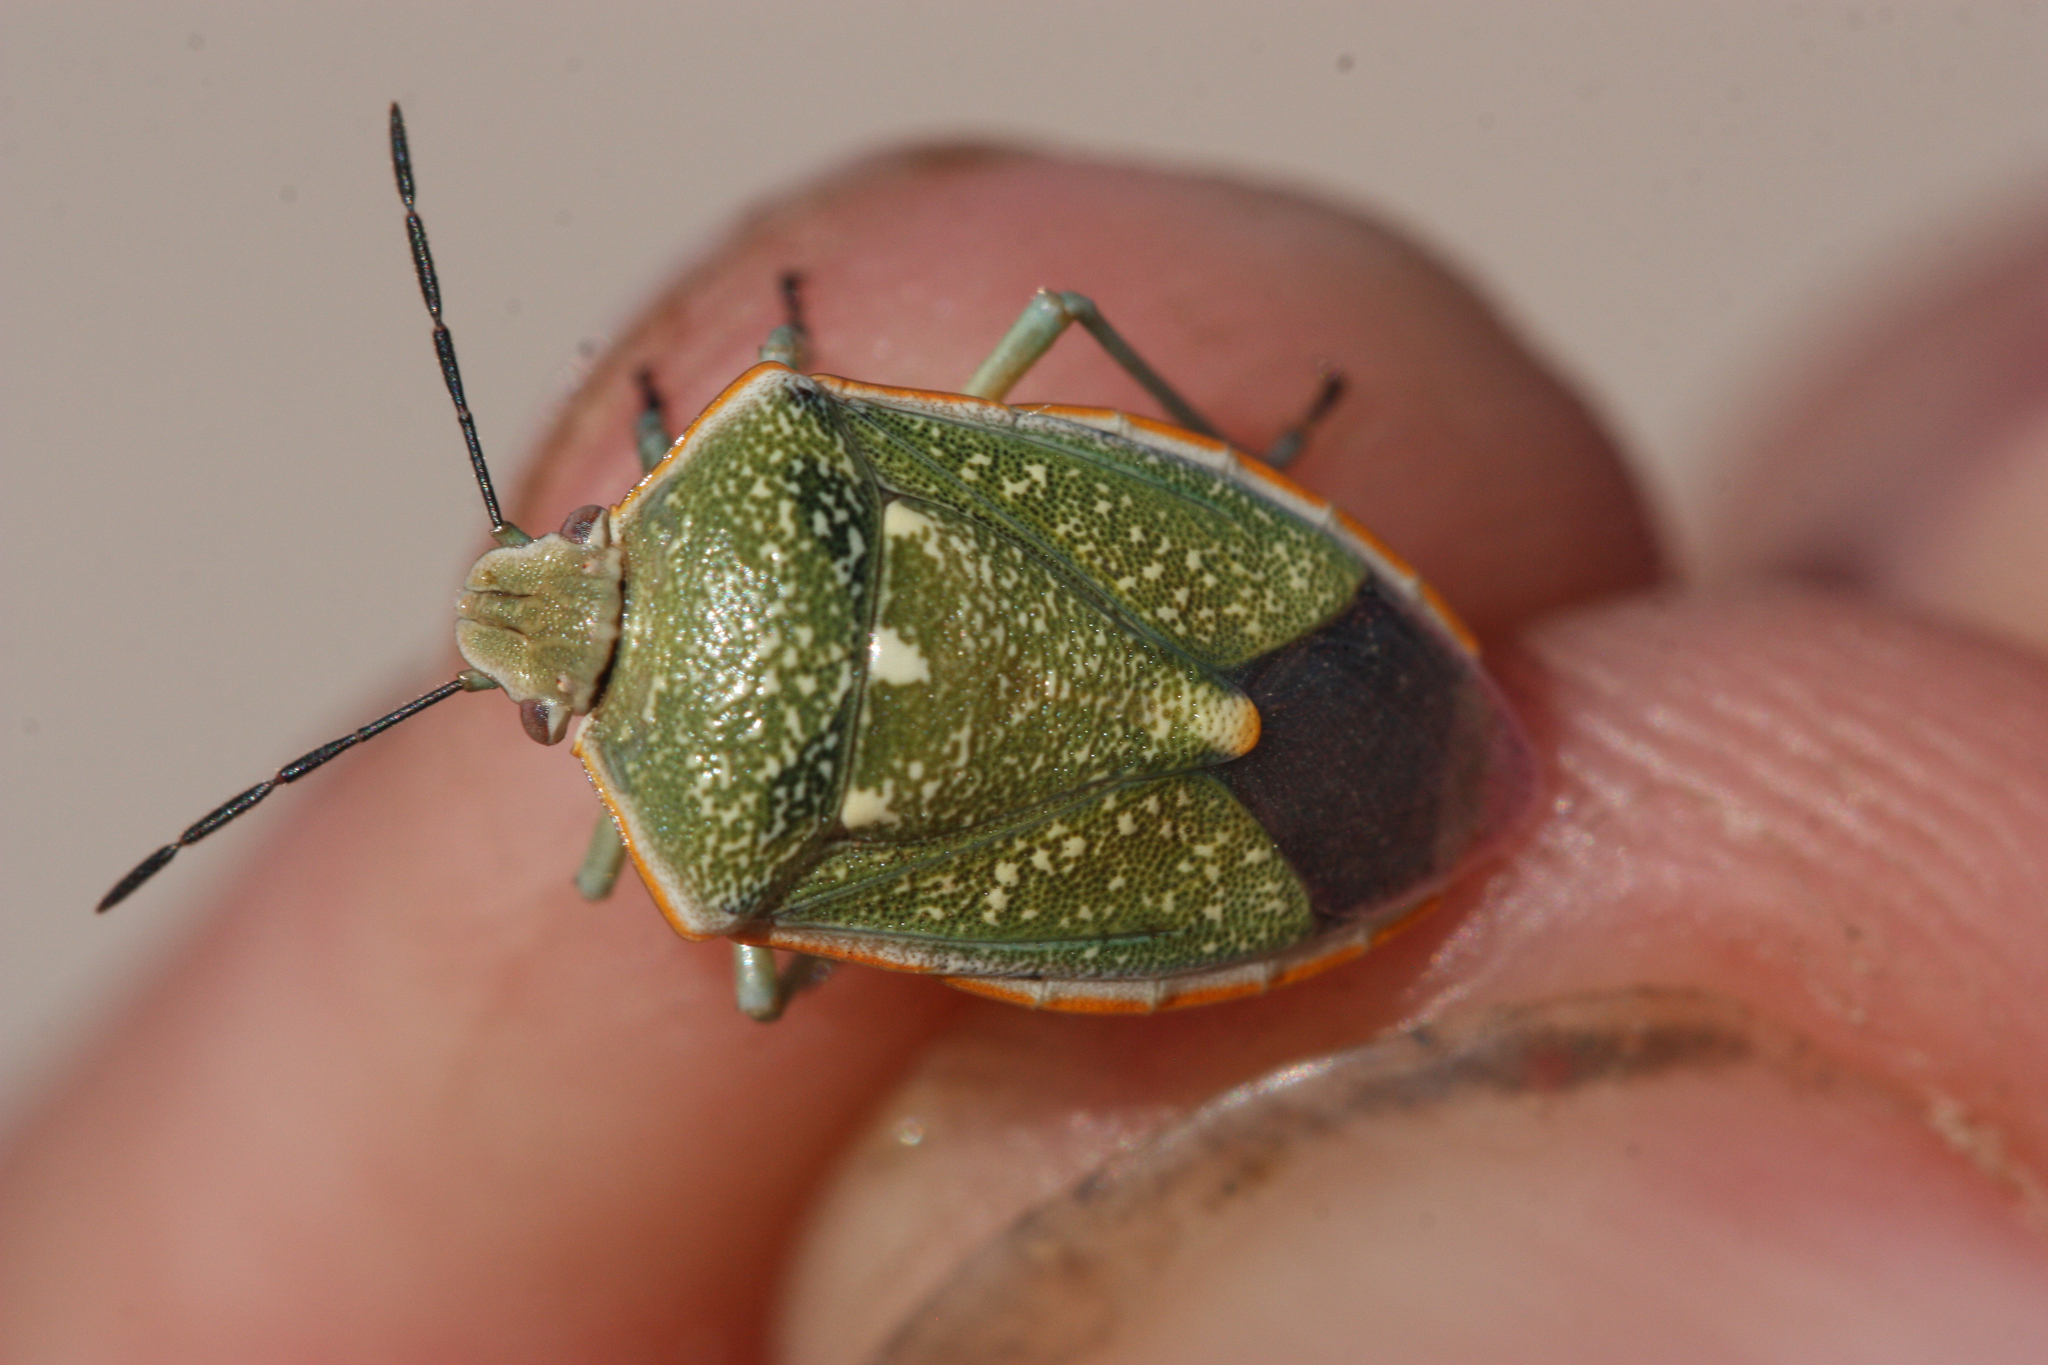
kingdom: Animalia
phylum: Arthropoda
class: Insecta
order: Hemiptera
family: Pentatomidae
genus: Chlorochroa
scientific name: Chlorochroa sayi
